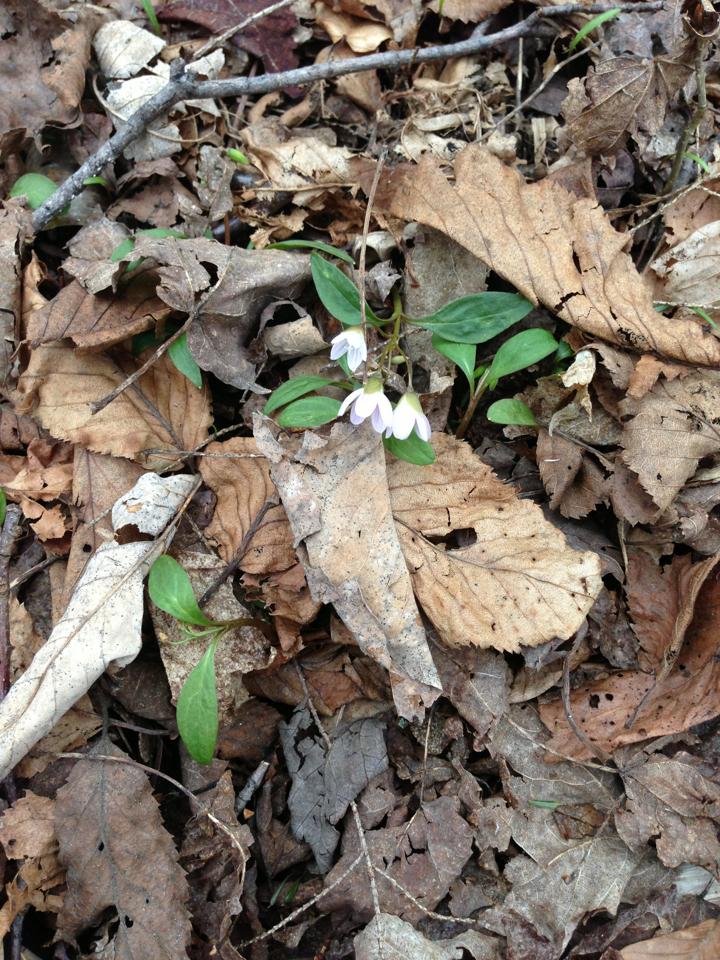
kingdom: Plantae
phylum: Tracheophyta
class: Magnoliopsida
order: Caryophyllales
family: Montiaceae
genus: Claytonia
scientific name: Claytonia caroliniana
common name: Carolina spring beauty
